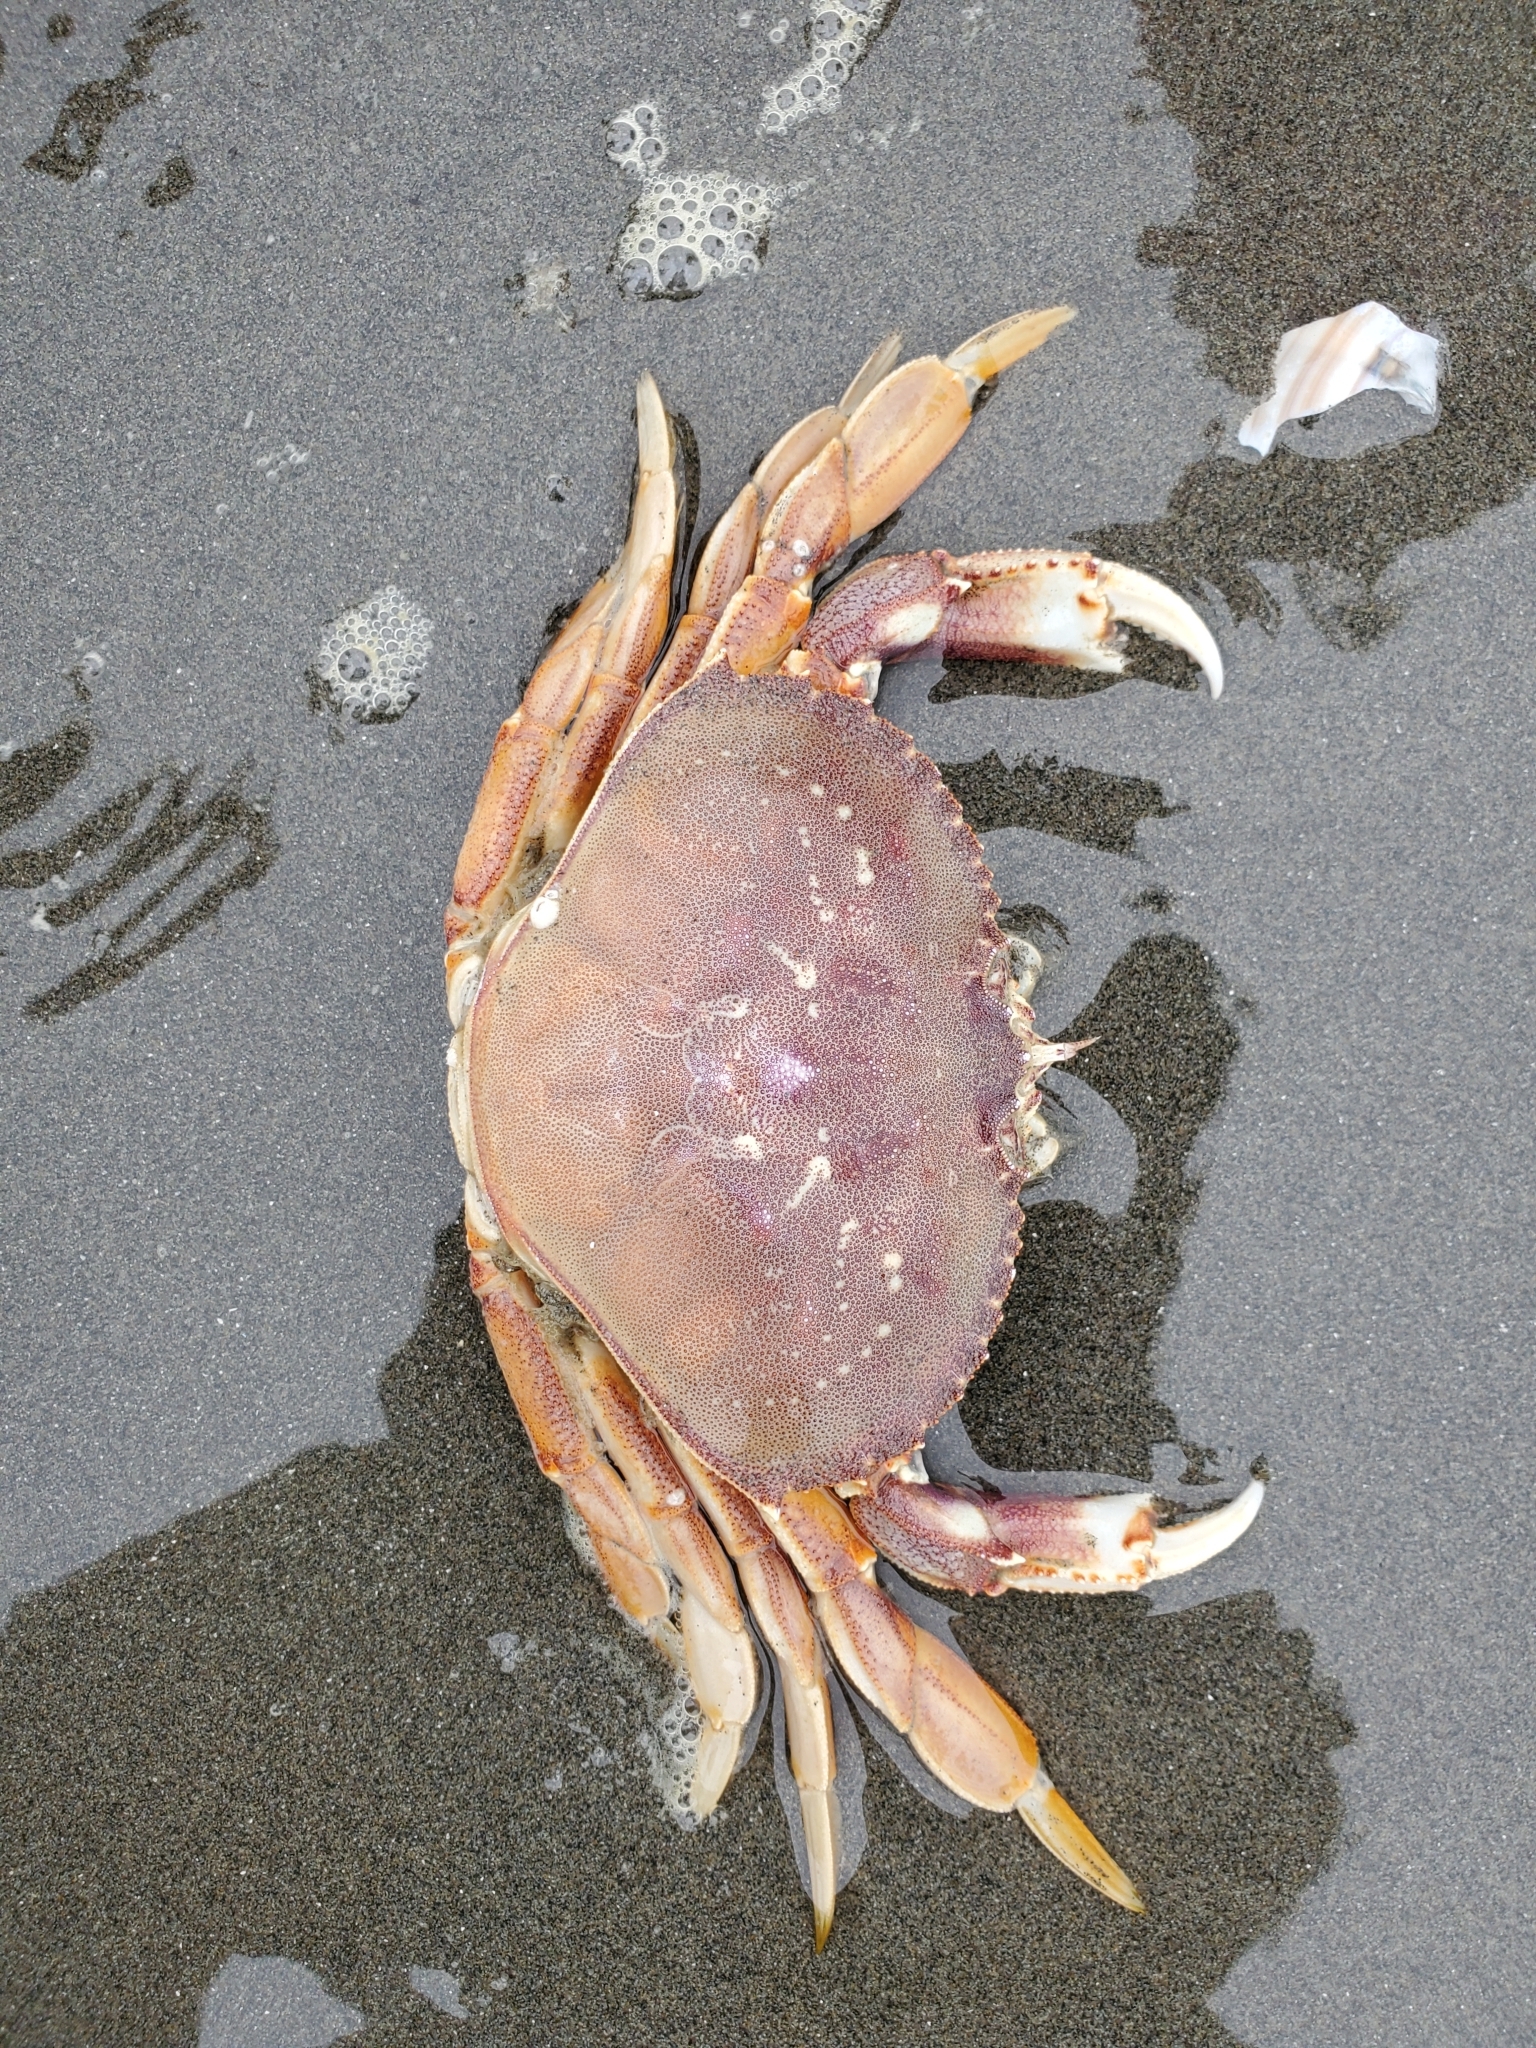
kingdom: Animalia
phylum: Arthropoda
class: Malacostraca
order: Decapoda
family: Cancridae
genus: Metacarcinus
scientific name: Metacarcinus magister
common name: Californian crab
